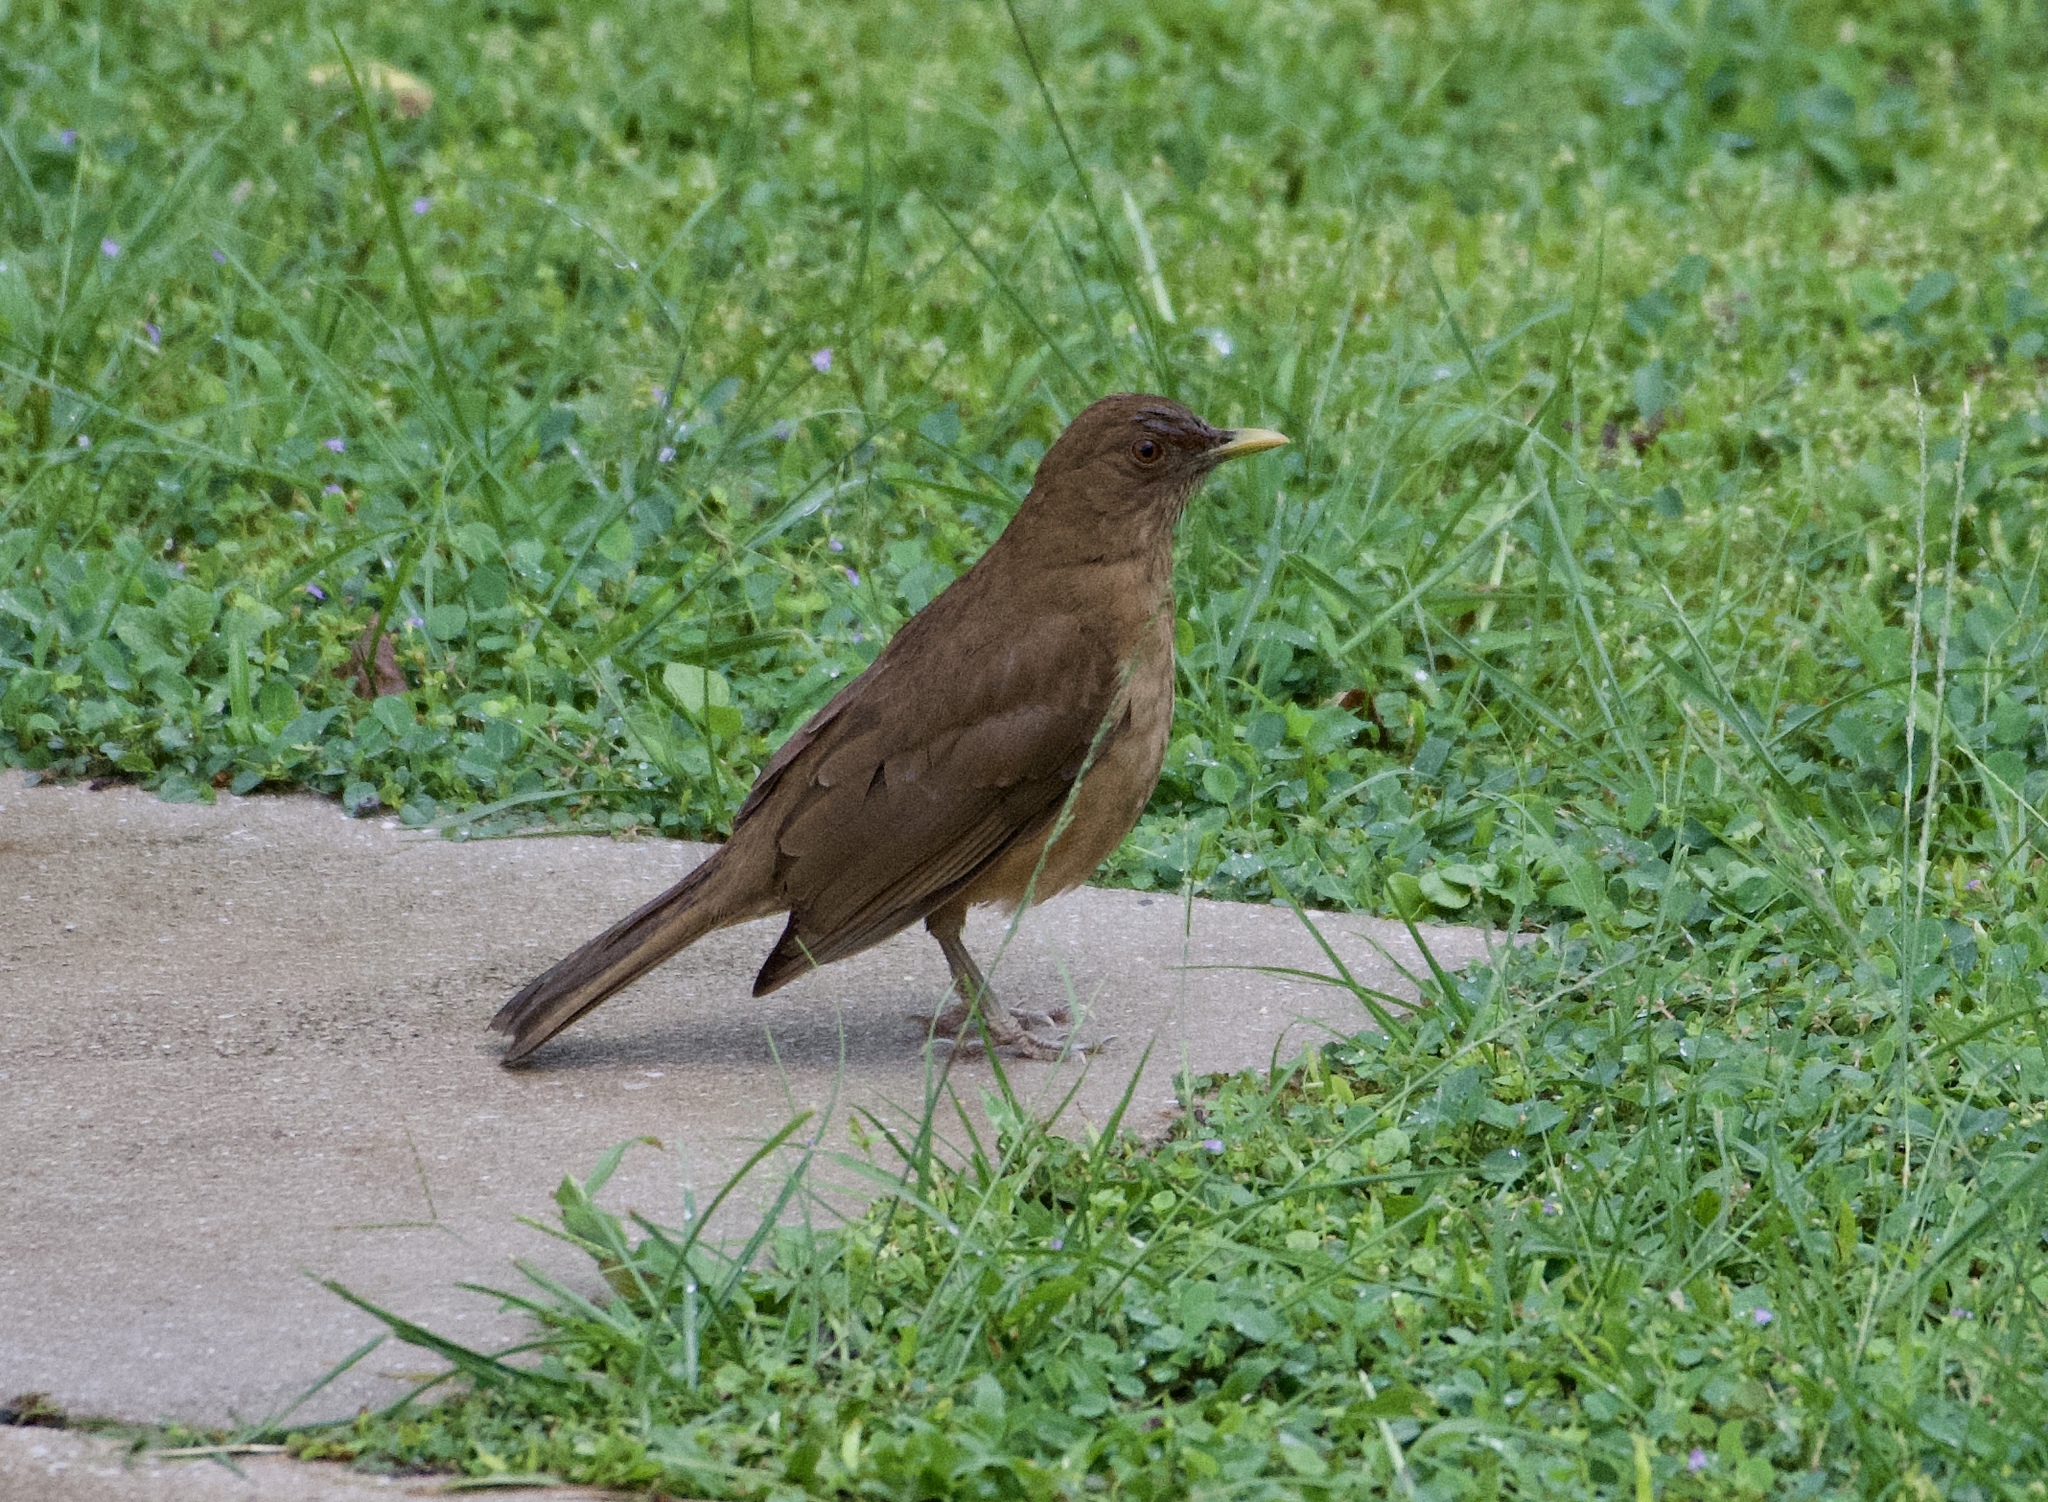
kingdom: Animalia
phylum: Chordata
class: Aves
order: Passeriformes
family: Turdidae
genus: Turdus
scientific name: Turdus grayi
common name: Clay-colored thrush
